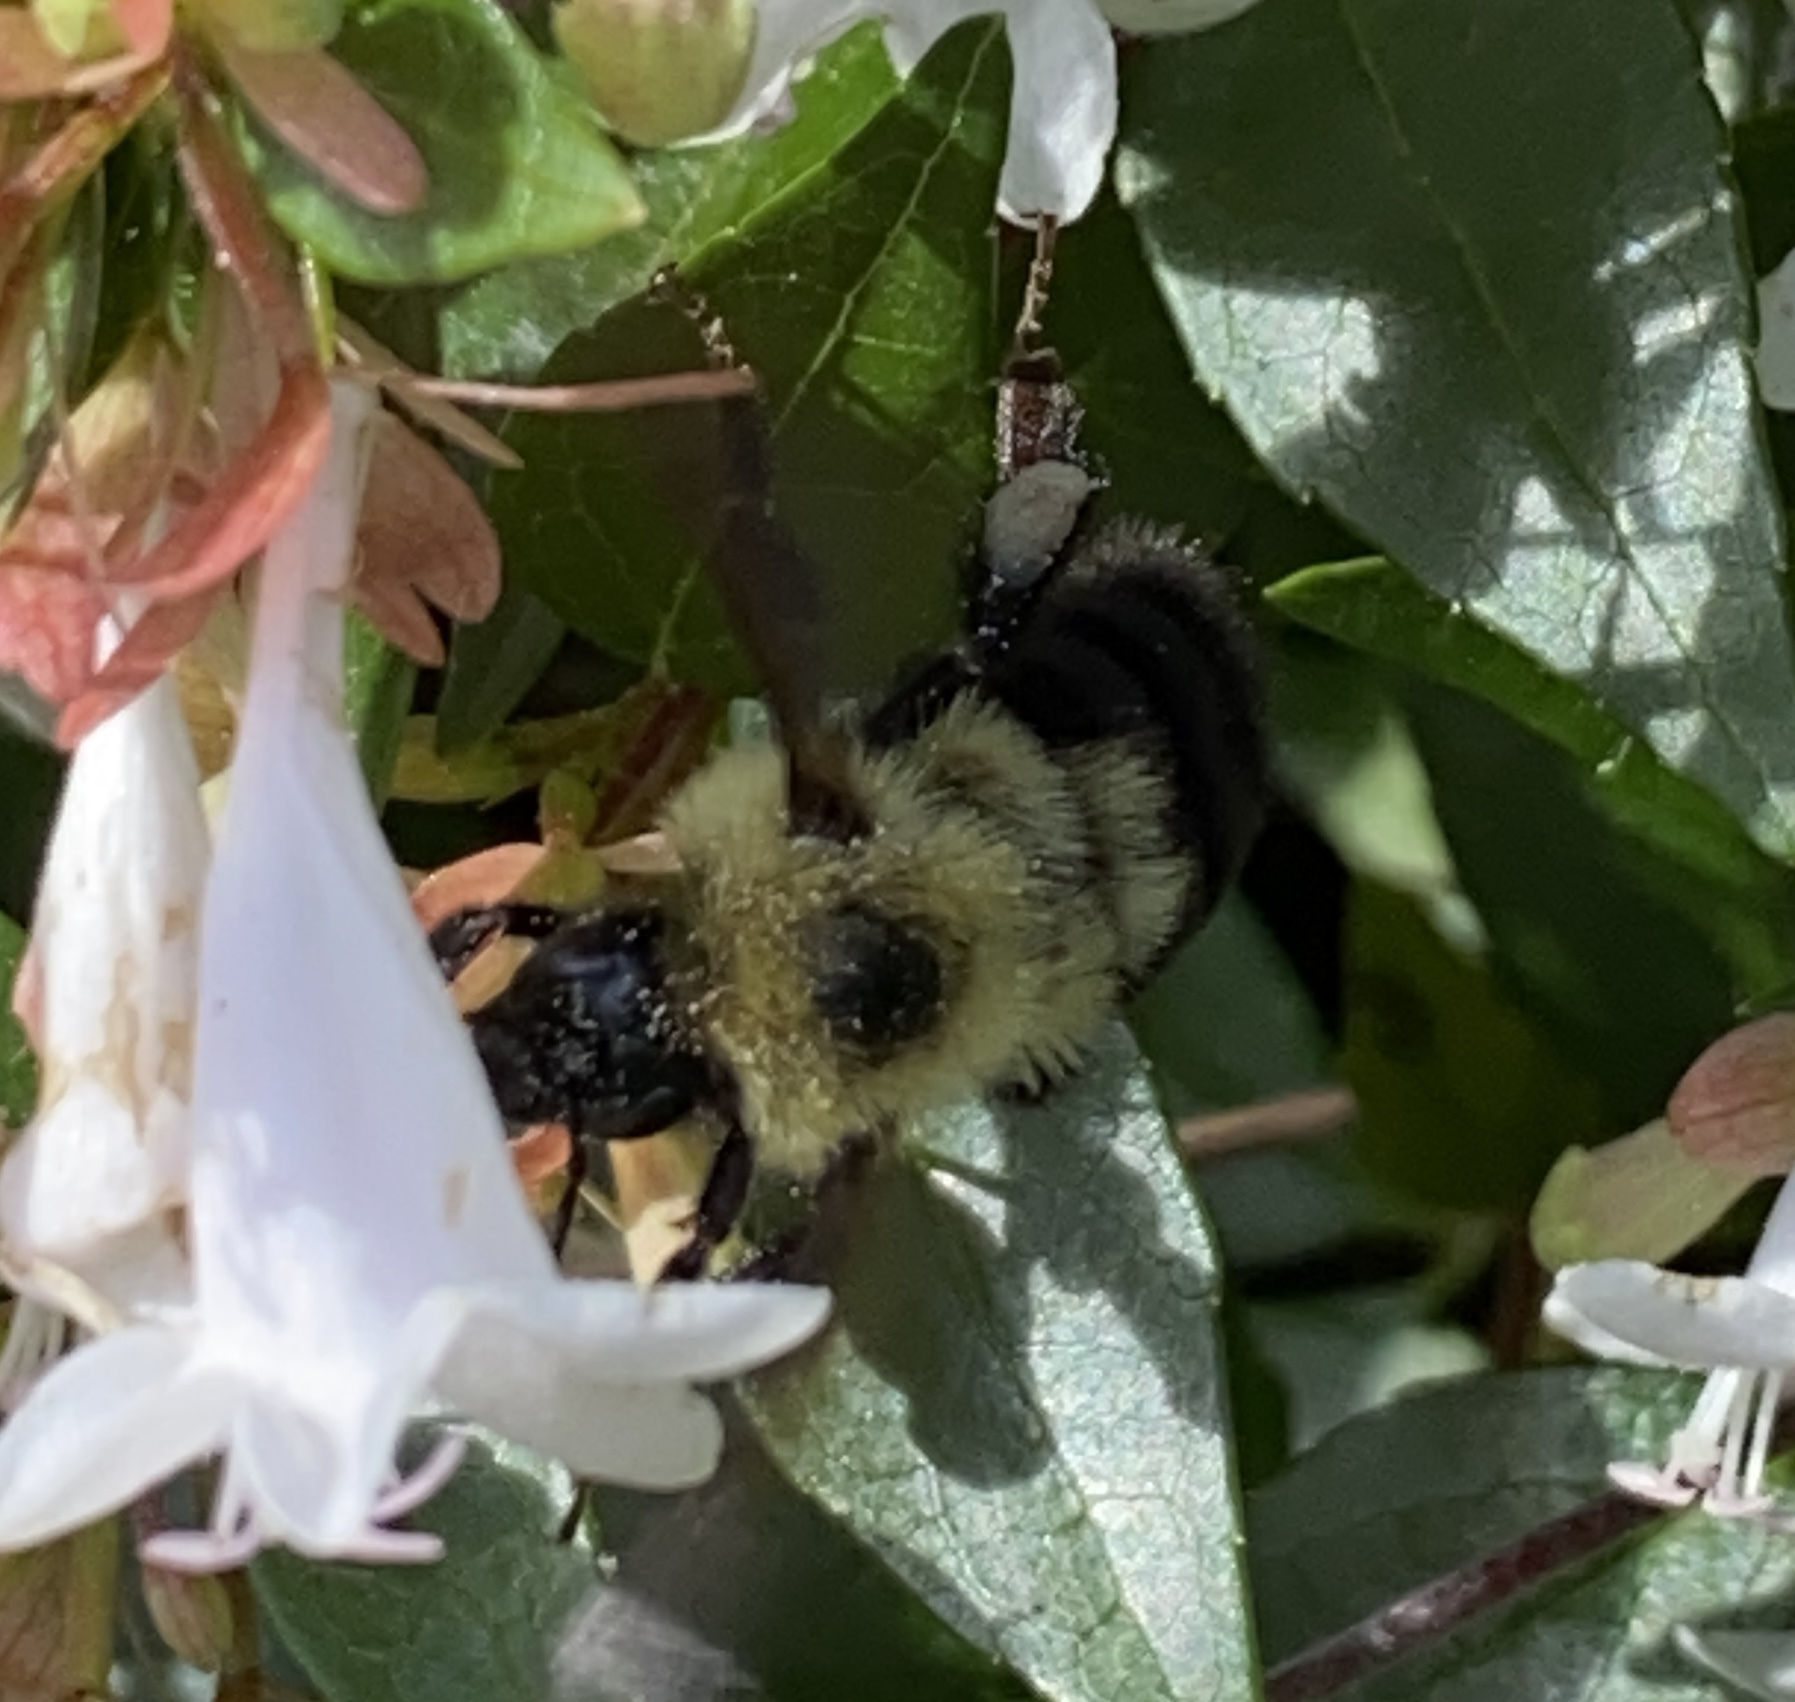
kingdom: Animalia
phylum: Arthropoda
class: Insecta
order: Hymenoptera
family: Apidae
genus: Bombus
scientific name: Bombus bimaculatus
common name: Two-spotted bumble bee
